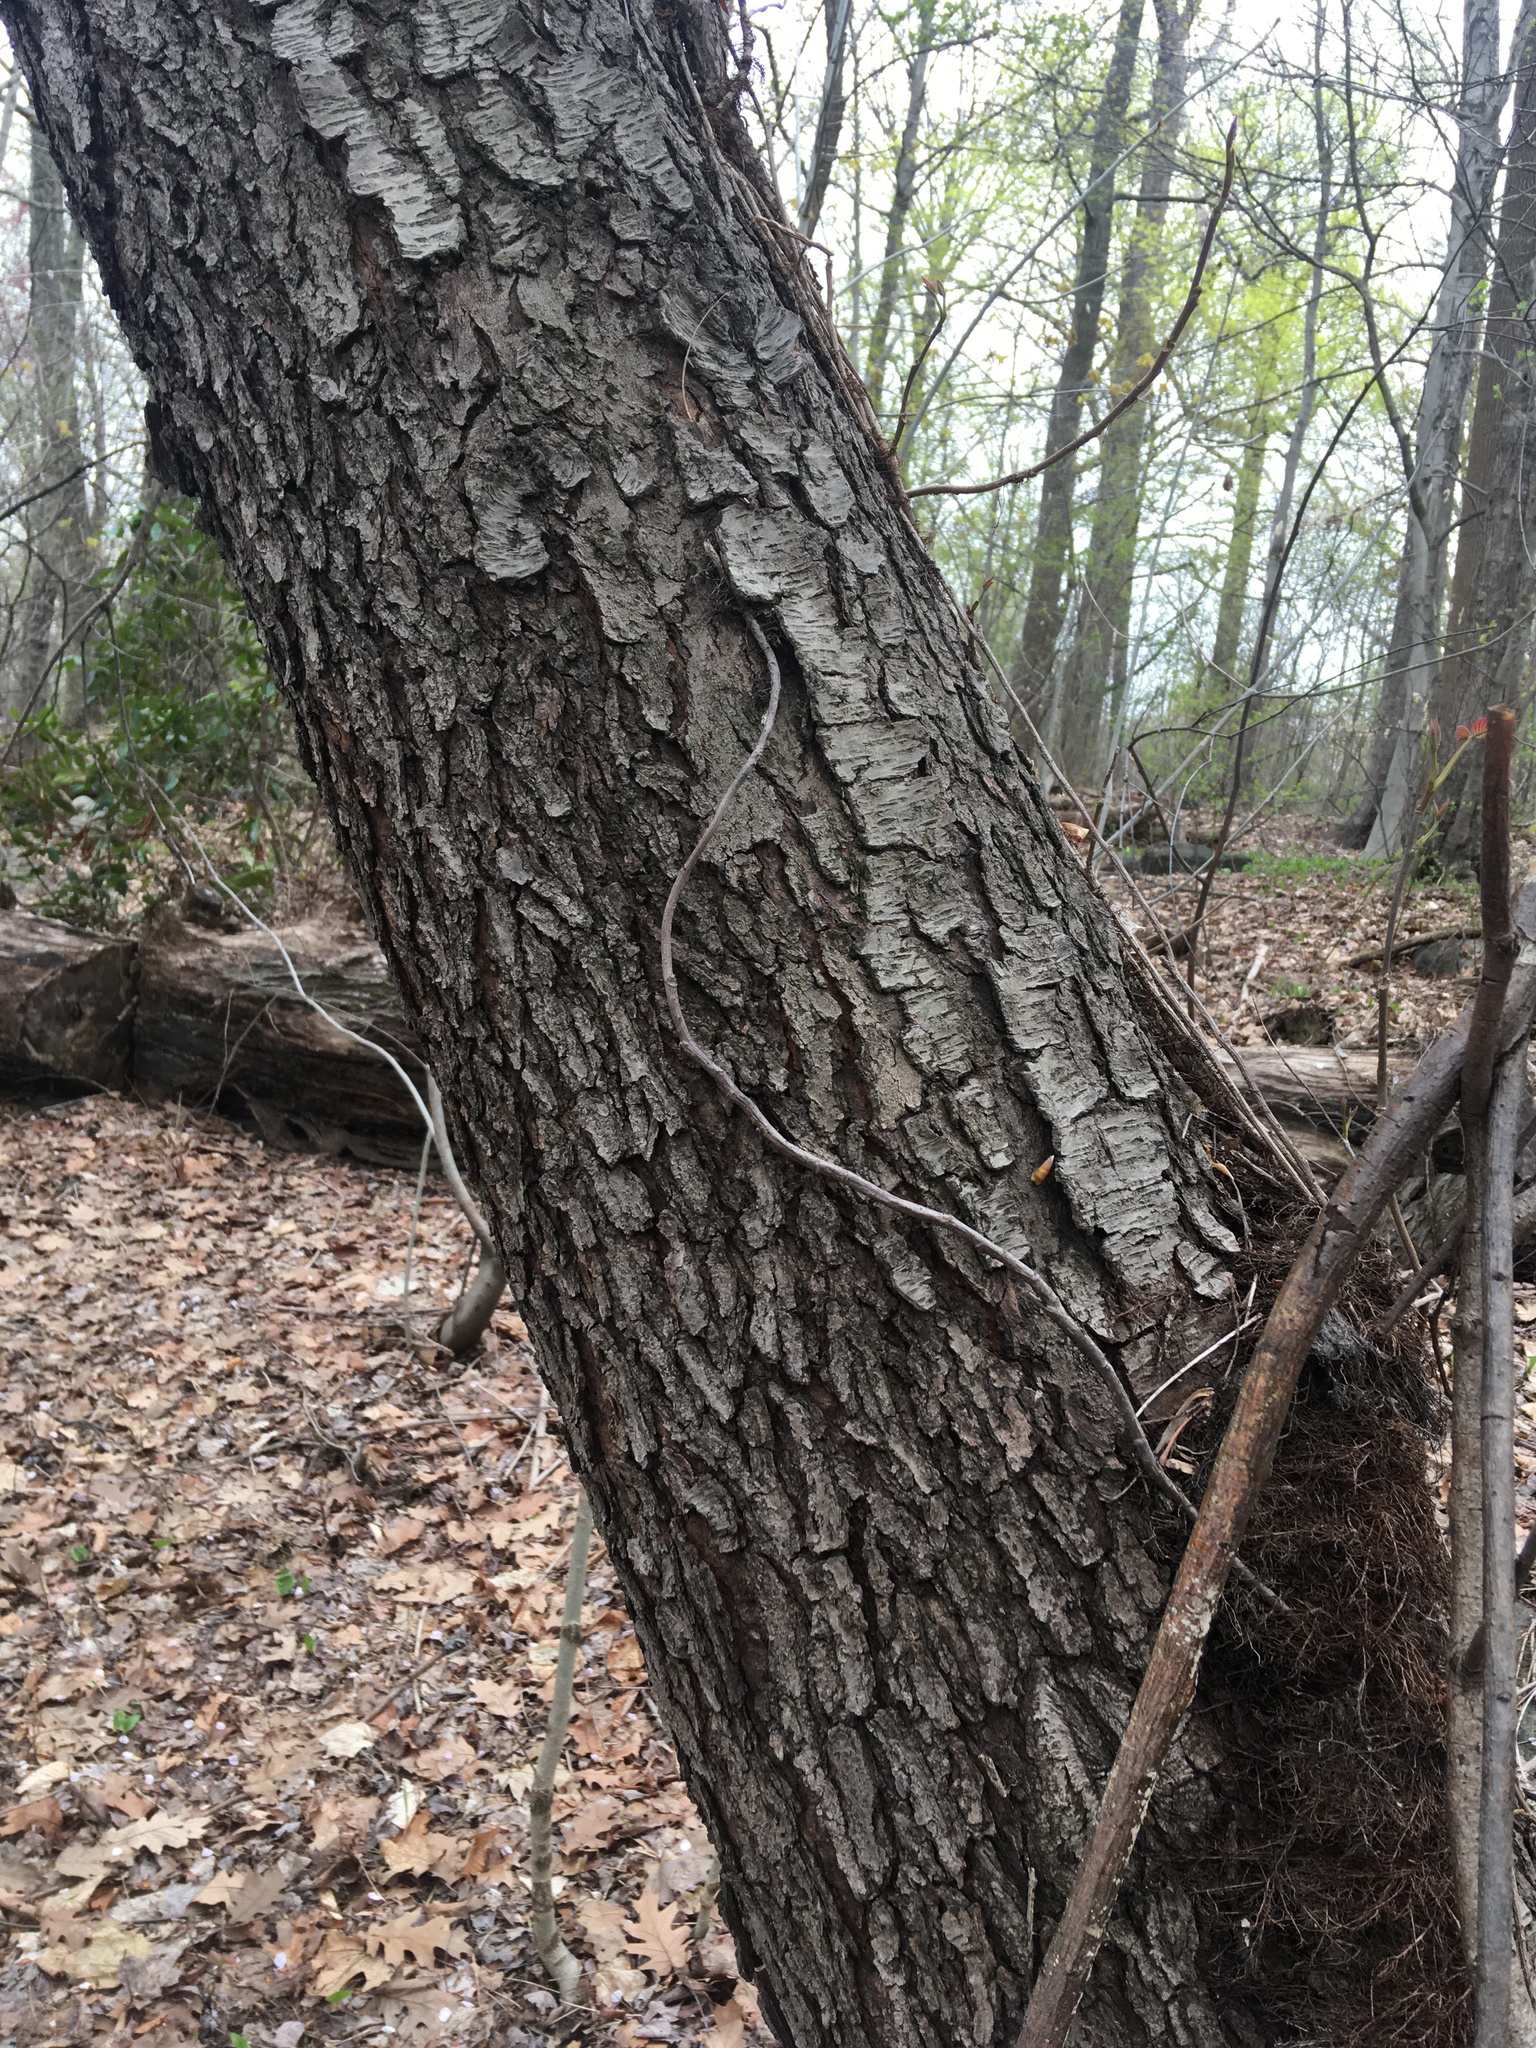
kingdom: Plantae
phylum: Tracheophyta
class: Magnoliopsida
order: Rosales
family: Rosaceae
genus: Prunus
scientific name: Prunus serotina
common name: Black cherry
